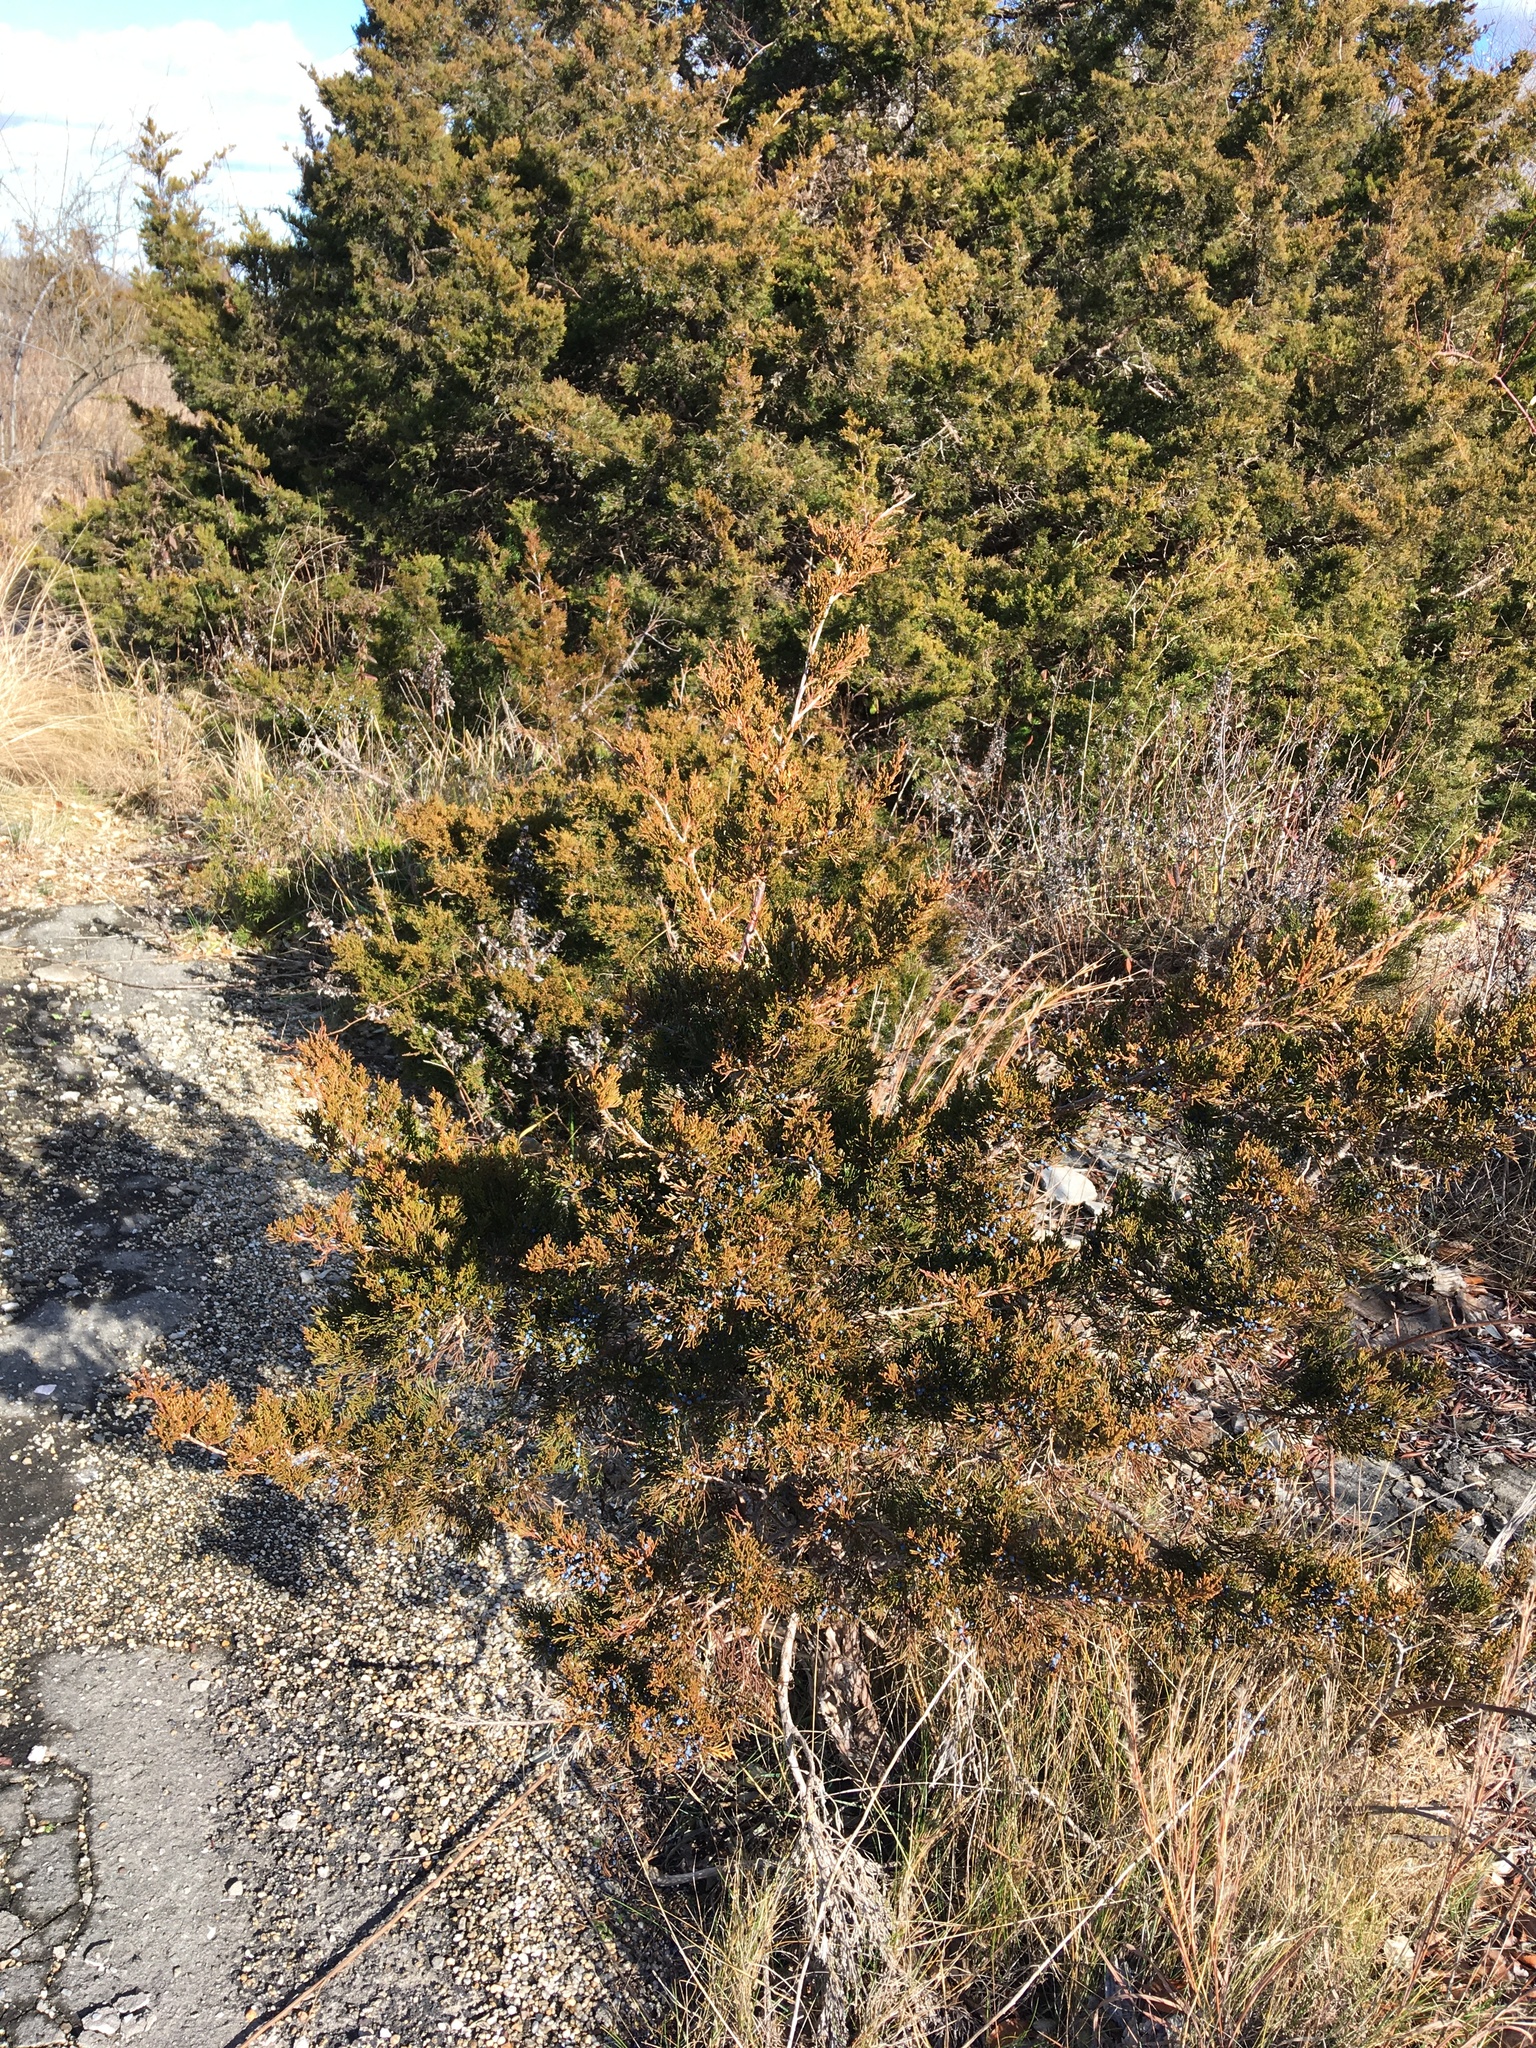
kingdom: Plantae
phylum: Tracheophyta
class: Pinopsida
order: Pinales
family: Cupressaceae
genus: Juniperus
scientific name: Juniperus virginiana
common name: Red juniper
